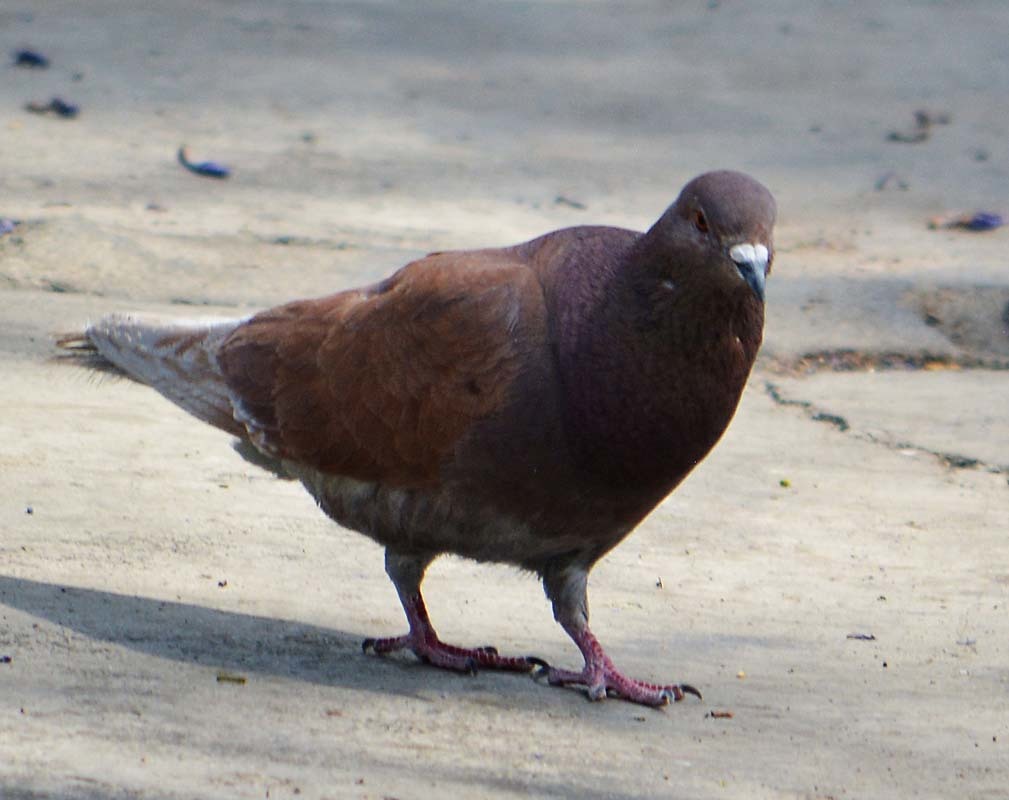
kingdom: Animalia
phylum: Chordata
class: Aves
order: Columbiformes
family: Columbidae
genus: Columba
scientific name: Columba livia
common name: Rock pigeon
